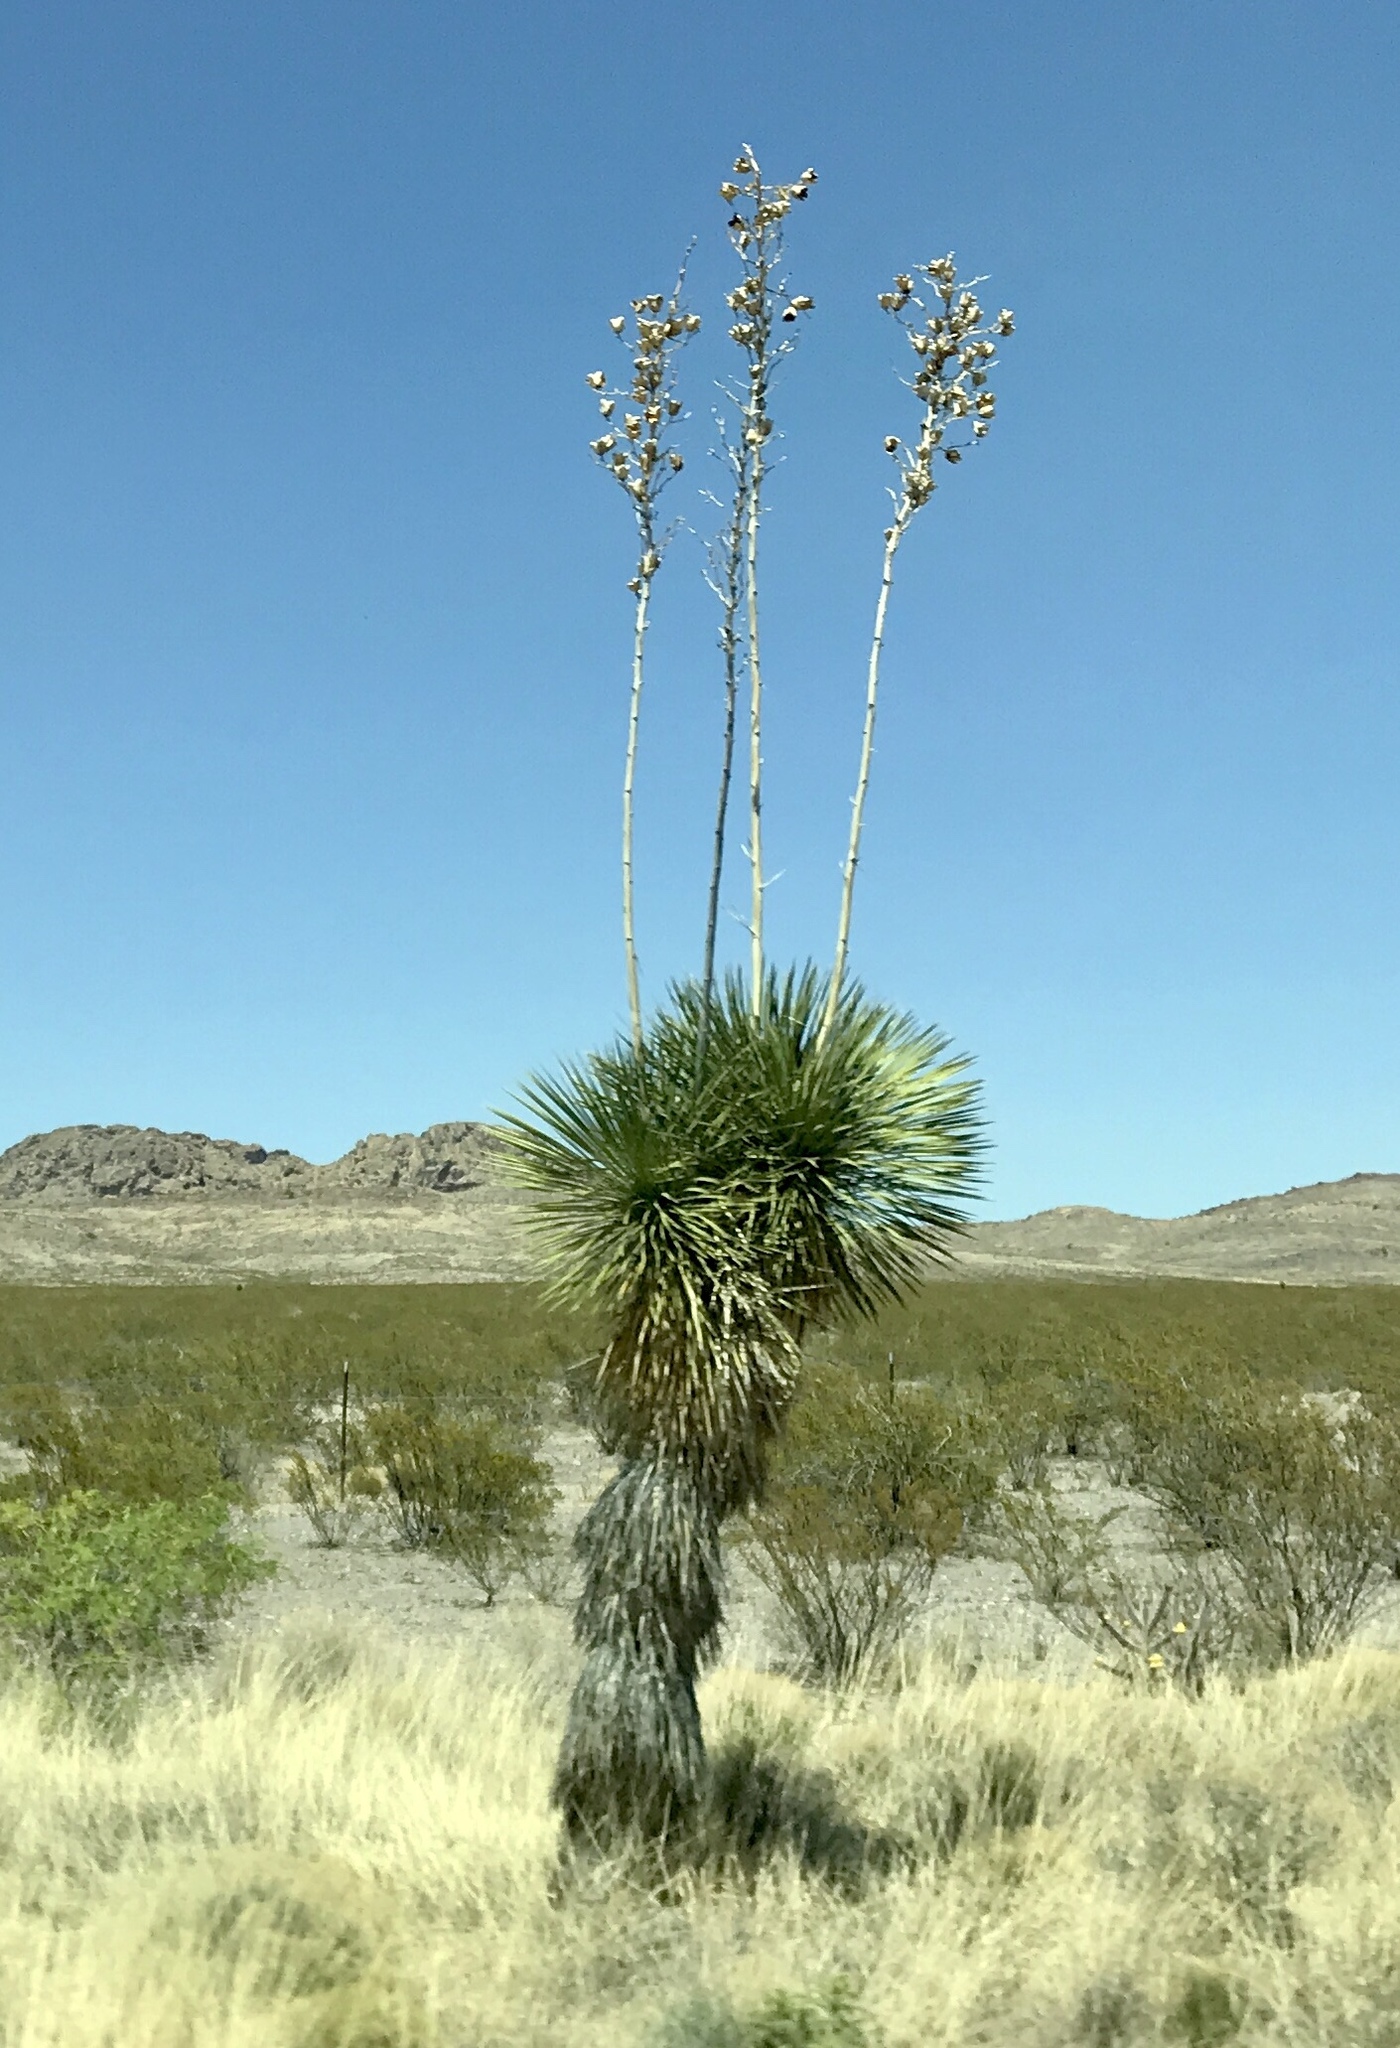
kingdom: Plantae
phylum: Tracheophyta
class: Liliopsida
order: Asparagales
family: Asparagaceae
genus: Yucca
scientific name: Yucca elata
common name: Palmella
